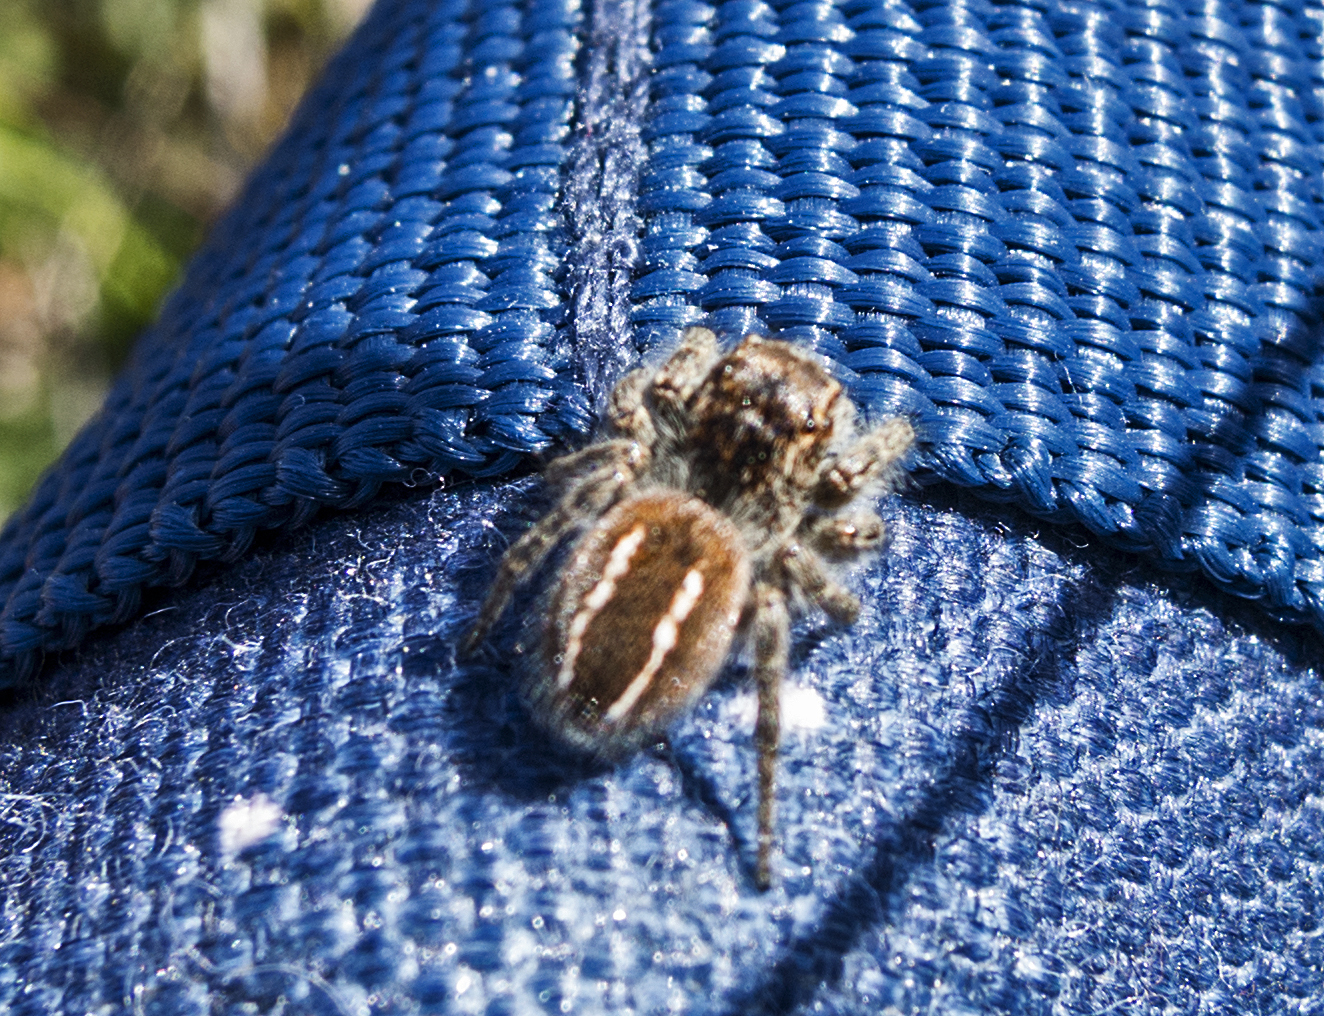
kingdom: Animalia
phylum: Arthropoda
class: Arachnida
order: Araneae
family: Salticidae
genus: Philaeus
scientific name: Philaeus chrysops
